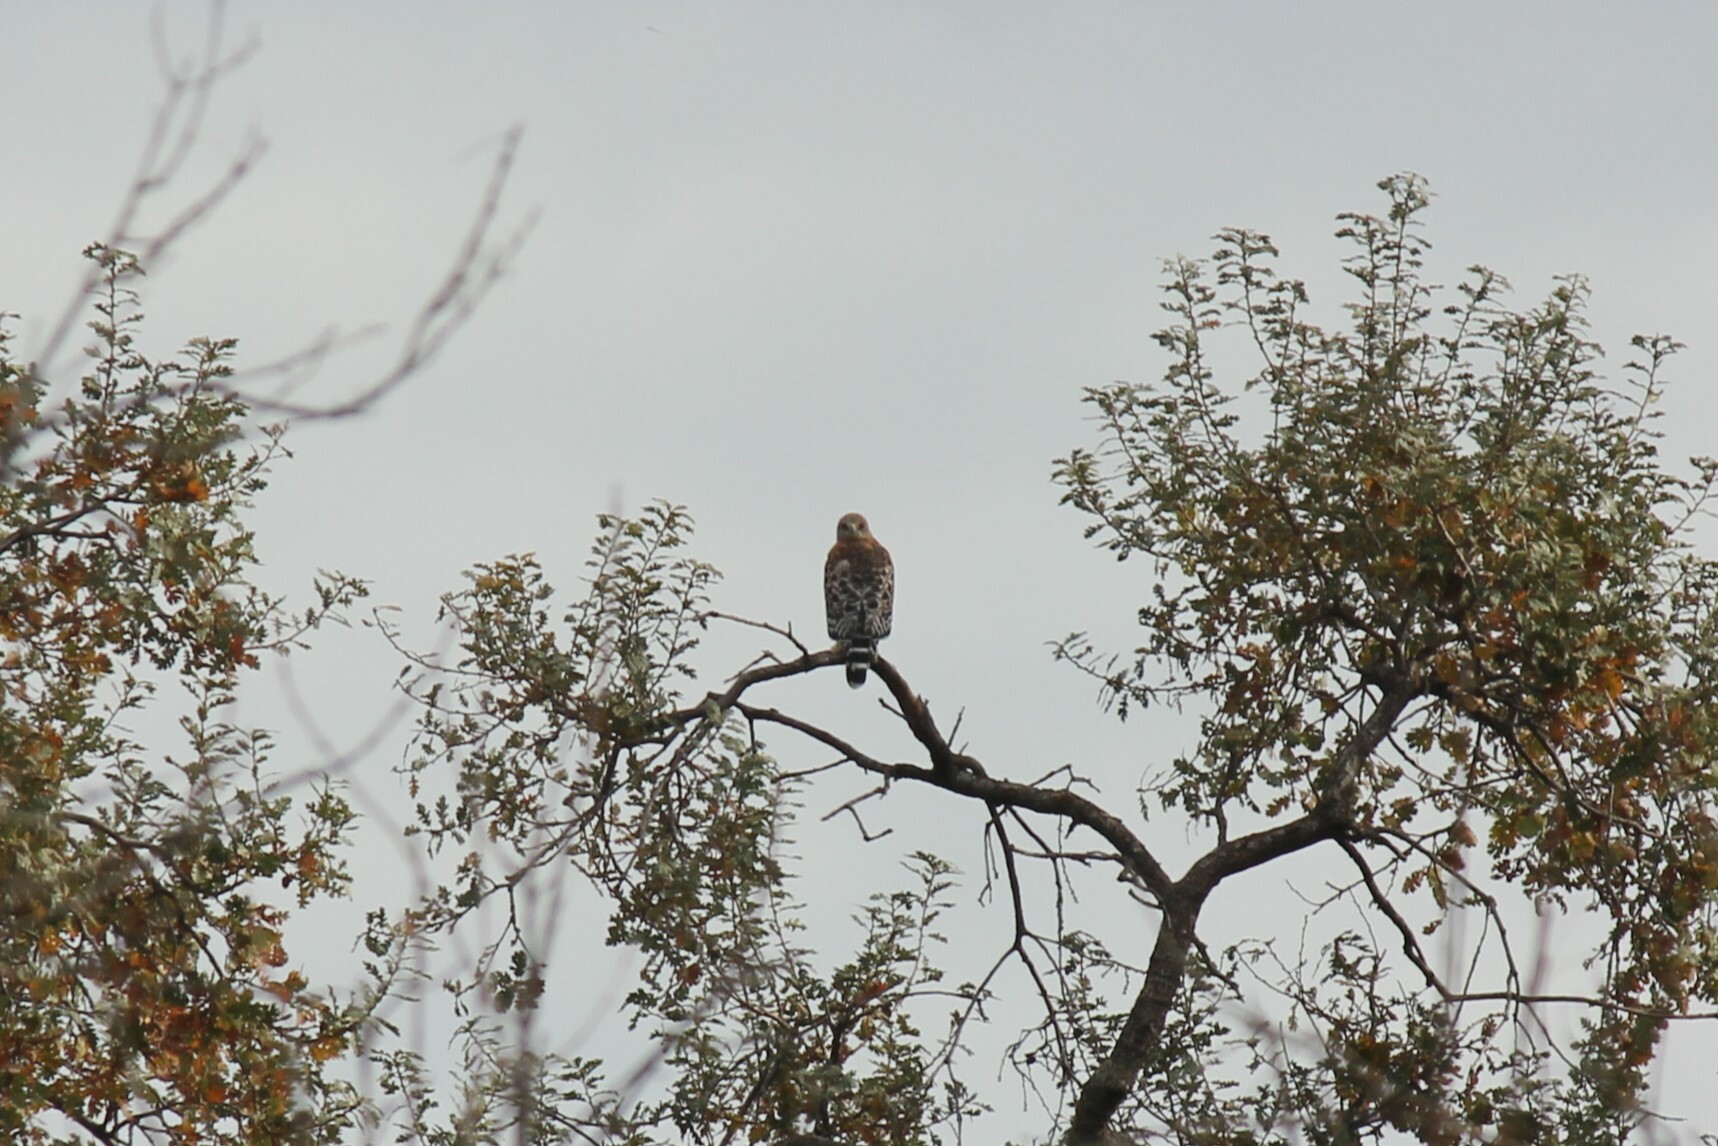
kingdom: Animalia
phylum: Chordata
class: Aves
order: Accipitriformes
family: Accipitridae
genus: Buteo
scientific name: Buteo lineatus
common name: Red-shouldered hawk
